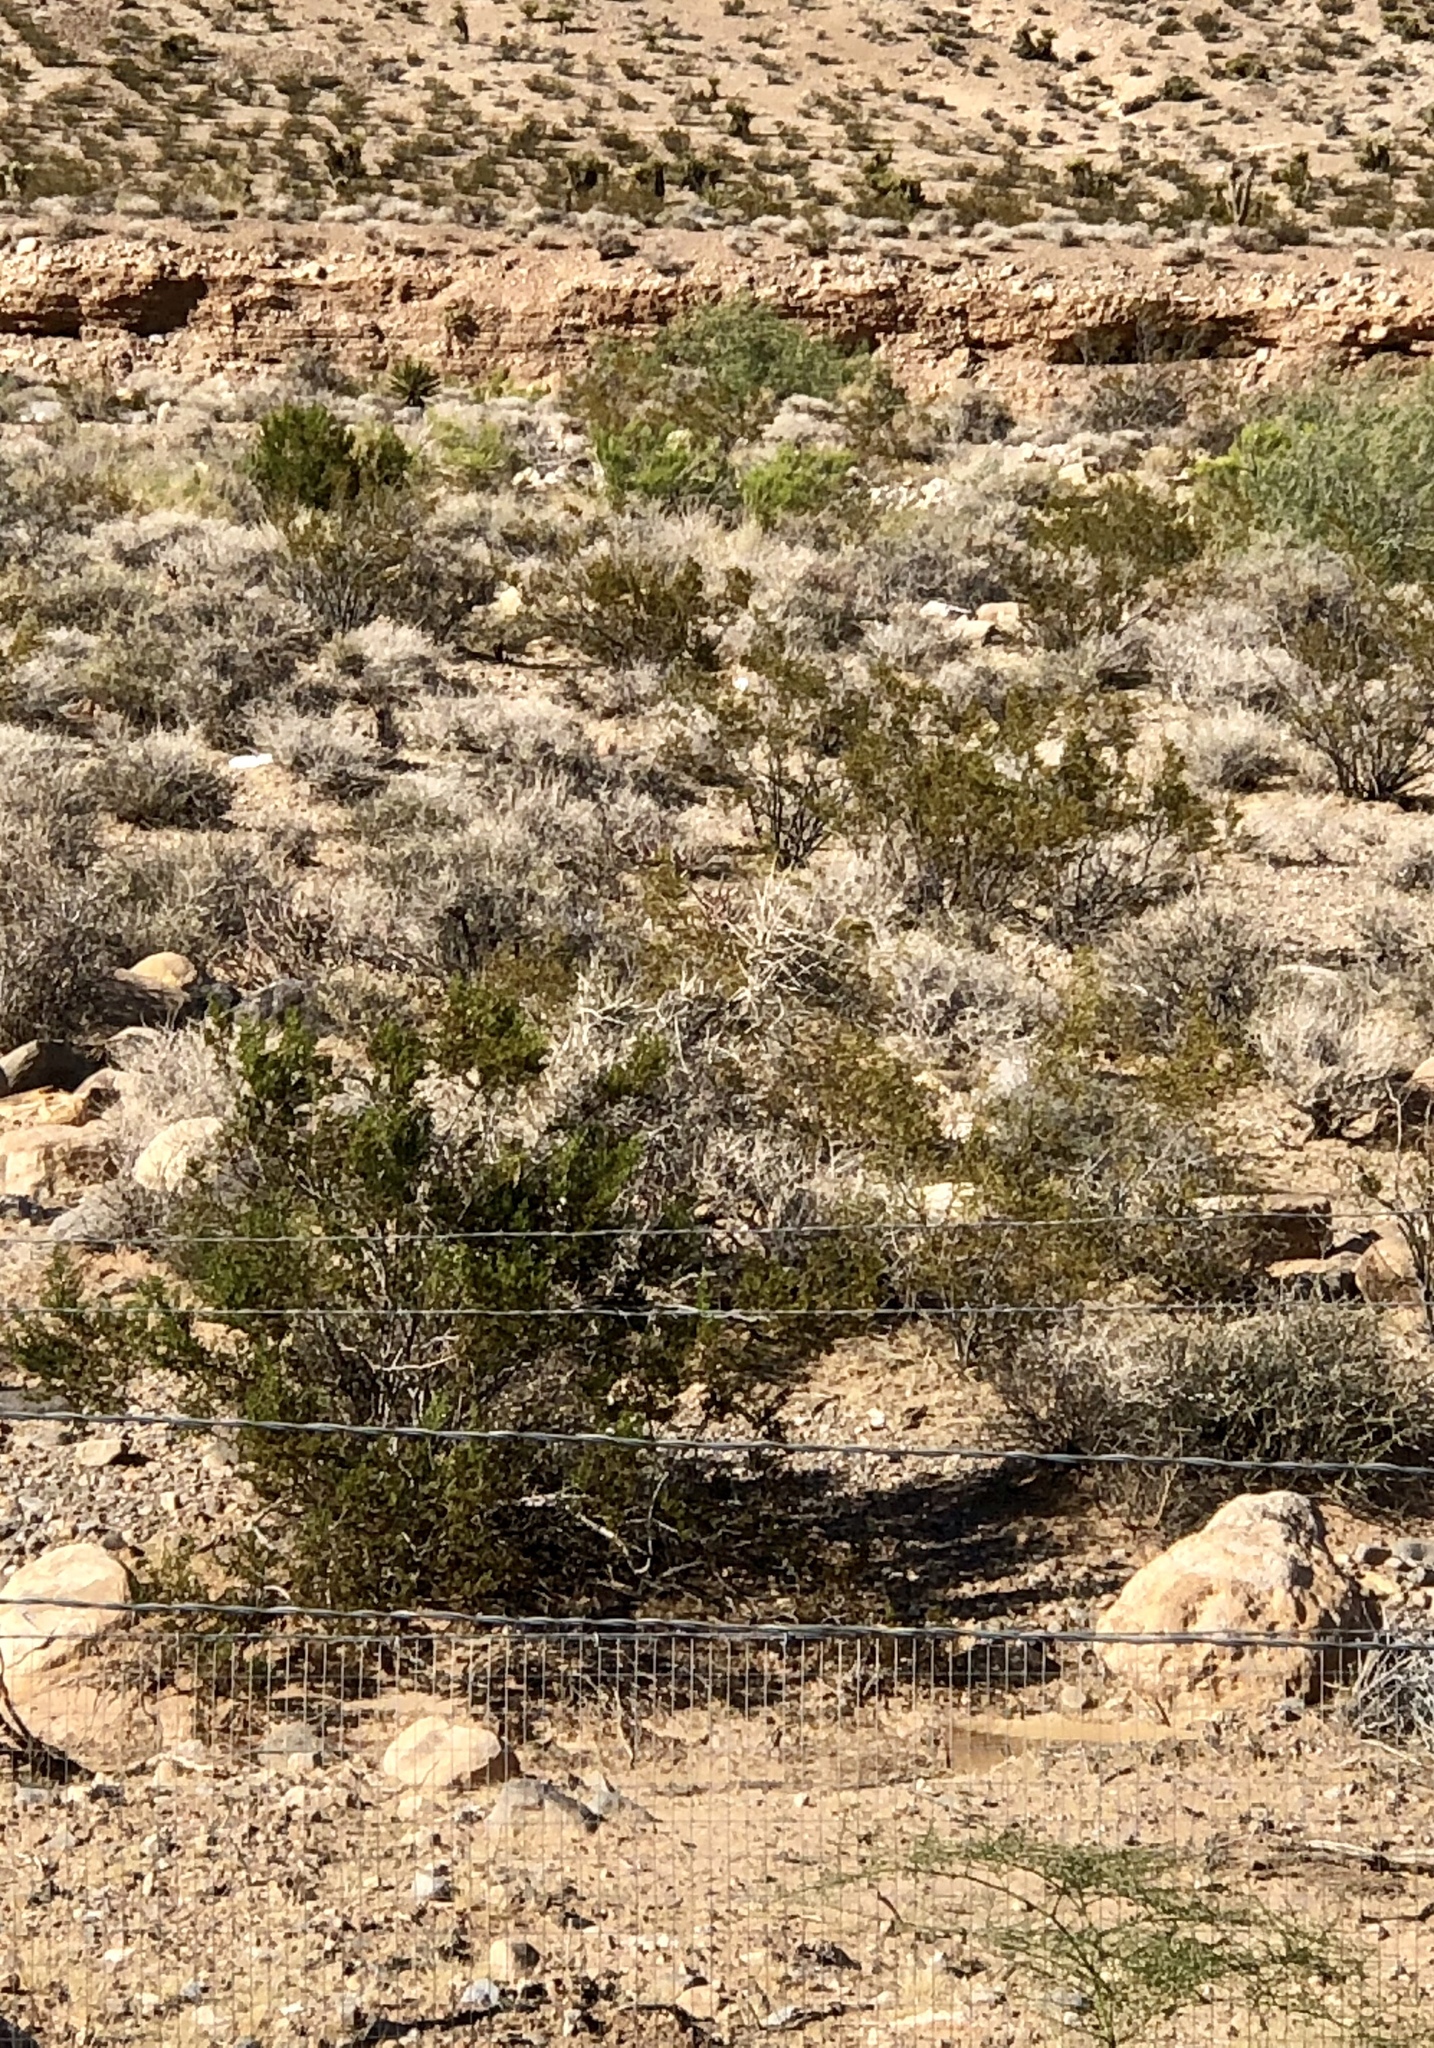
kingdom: Plantae
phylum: Tracheophyta
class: Magnoliopsida
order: Zygophyllales
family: Zygophyllaceae
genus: Larrea
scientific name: Larrea tridentata
